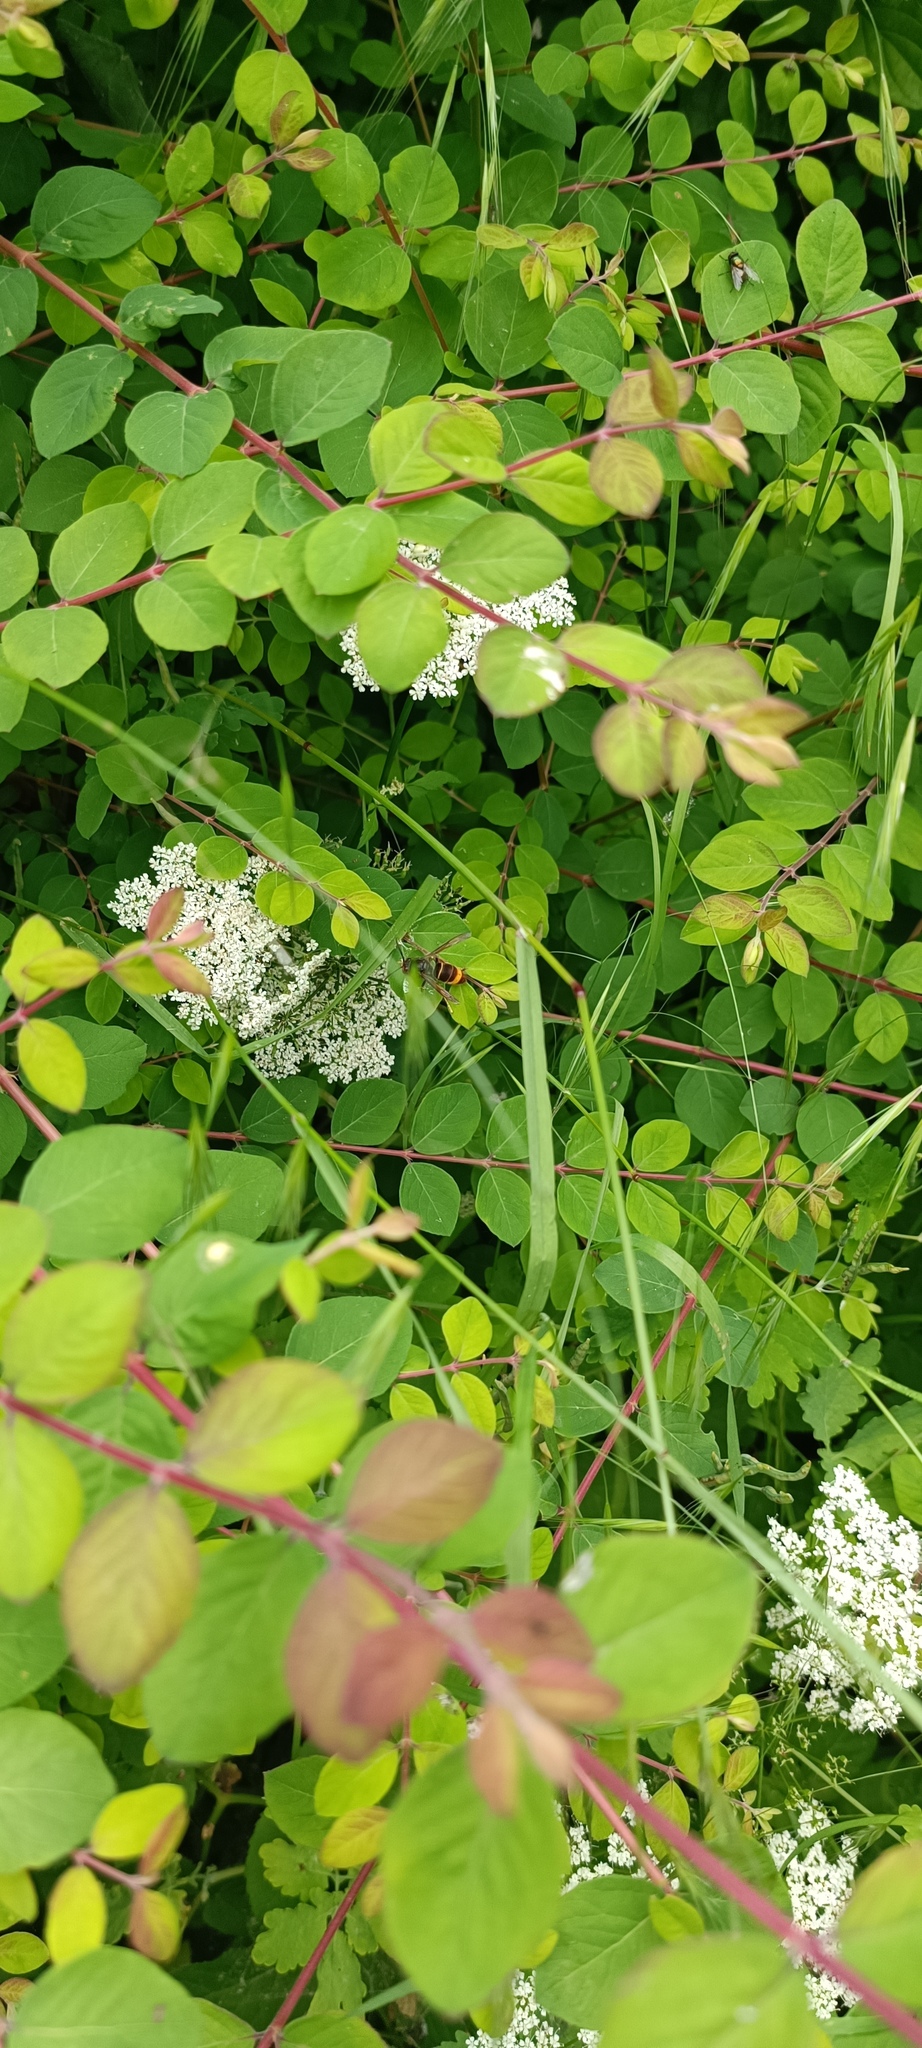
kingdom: Animalia
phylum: Arthropoda
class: Insecta
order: Hymenoptera
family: Vespidae
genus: Vespa
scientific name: Vespa velutina
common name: Asian hornet
